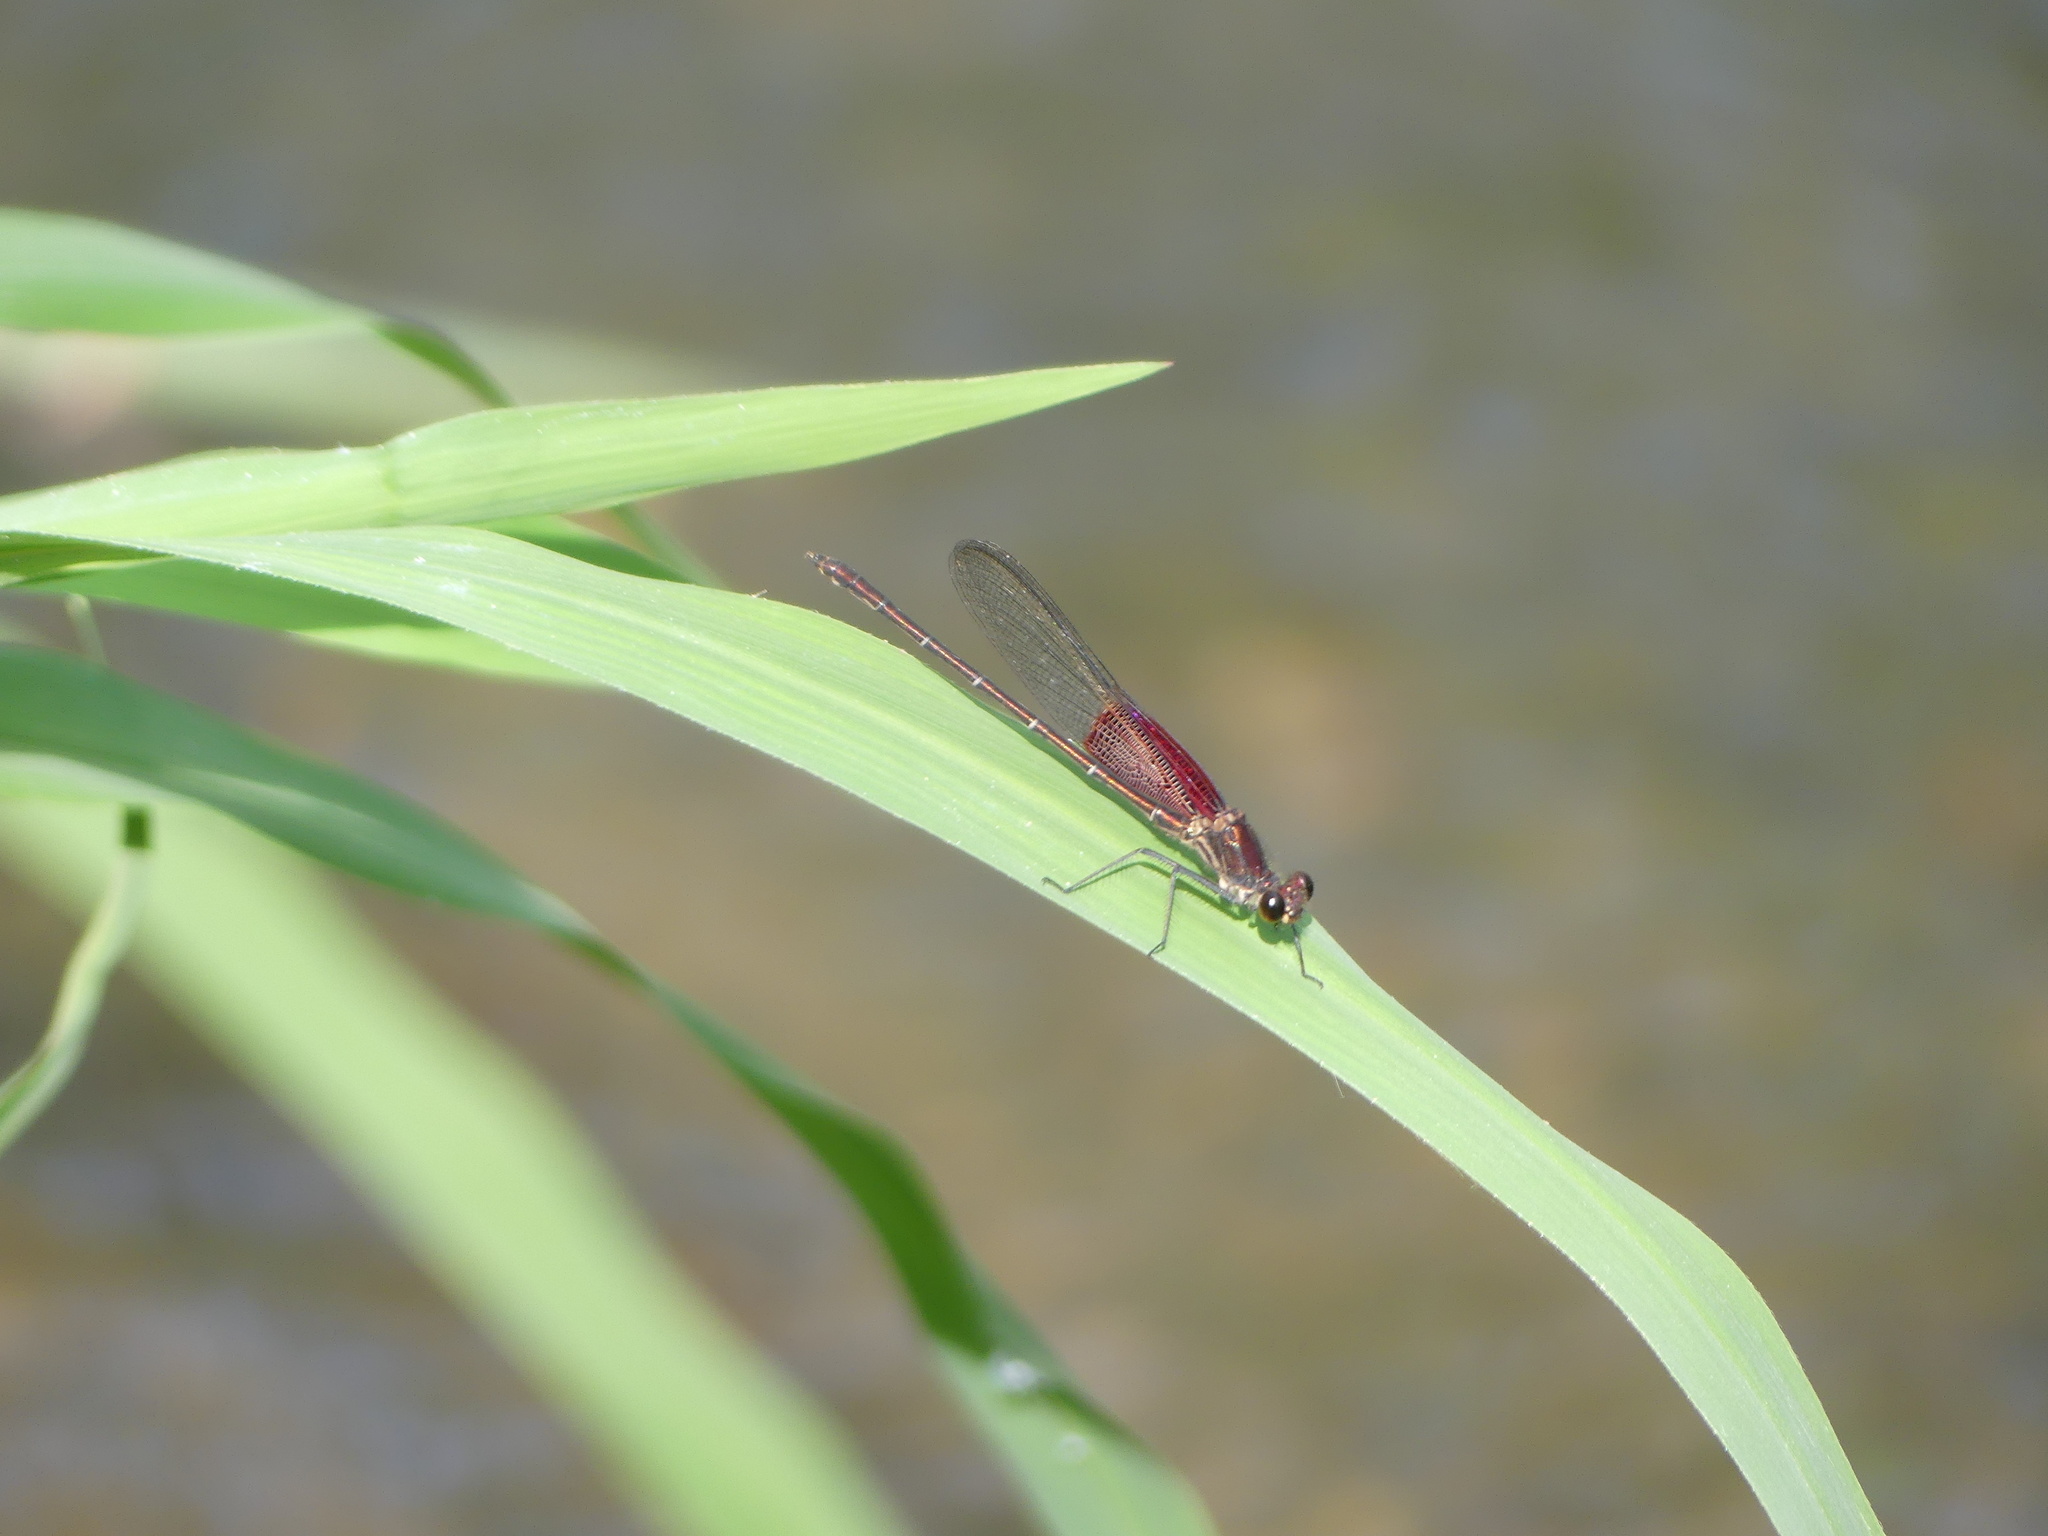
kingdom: Animalia
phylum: Arthropoda
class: Insecta
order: Odonata
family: Calopterygidae
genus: Hetaerina
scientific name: Hetaerina americana
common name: American rubyspot
